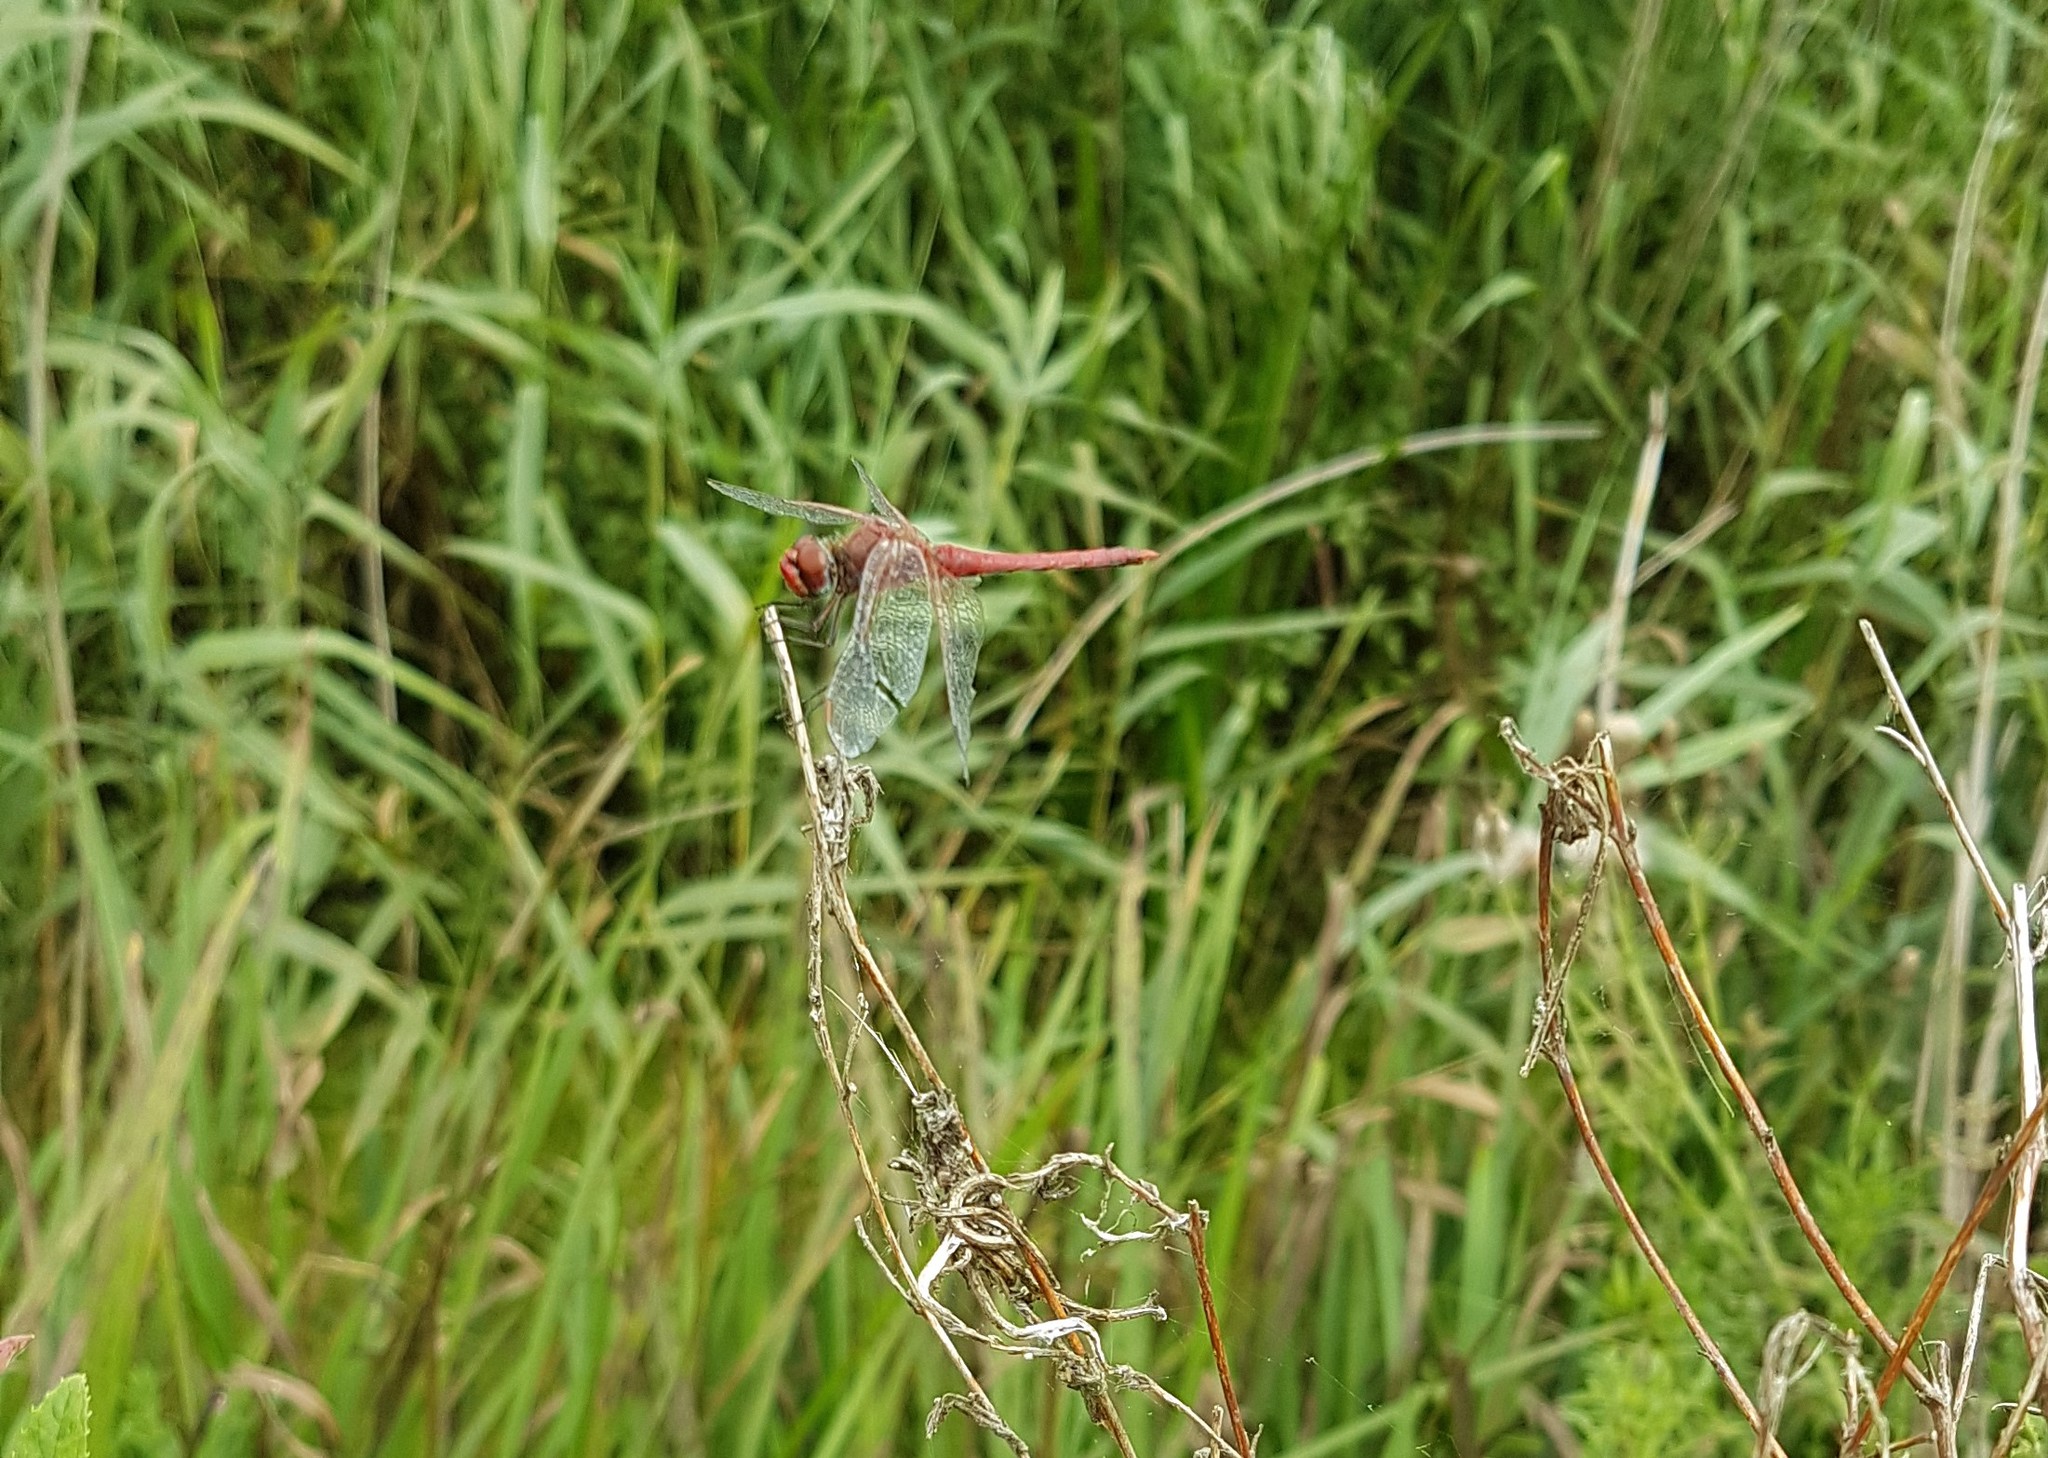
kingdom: Animalia
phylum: Arthropoda
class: Insecta
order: Odonata
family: Libellulidae
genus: Sympetrum
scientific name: Sympetrum fonscolombii
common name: Red-veined darter
